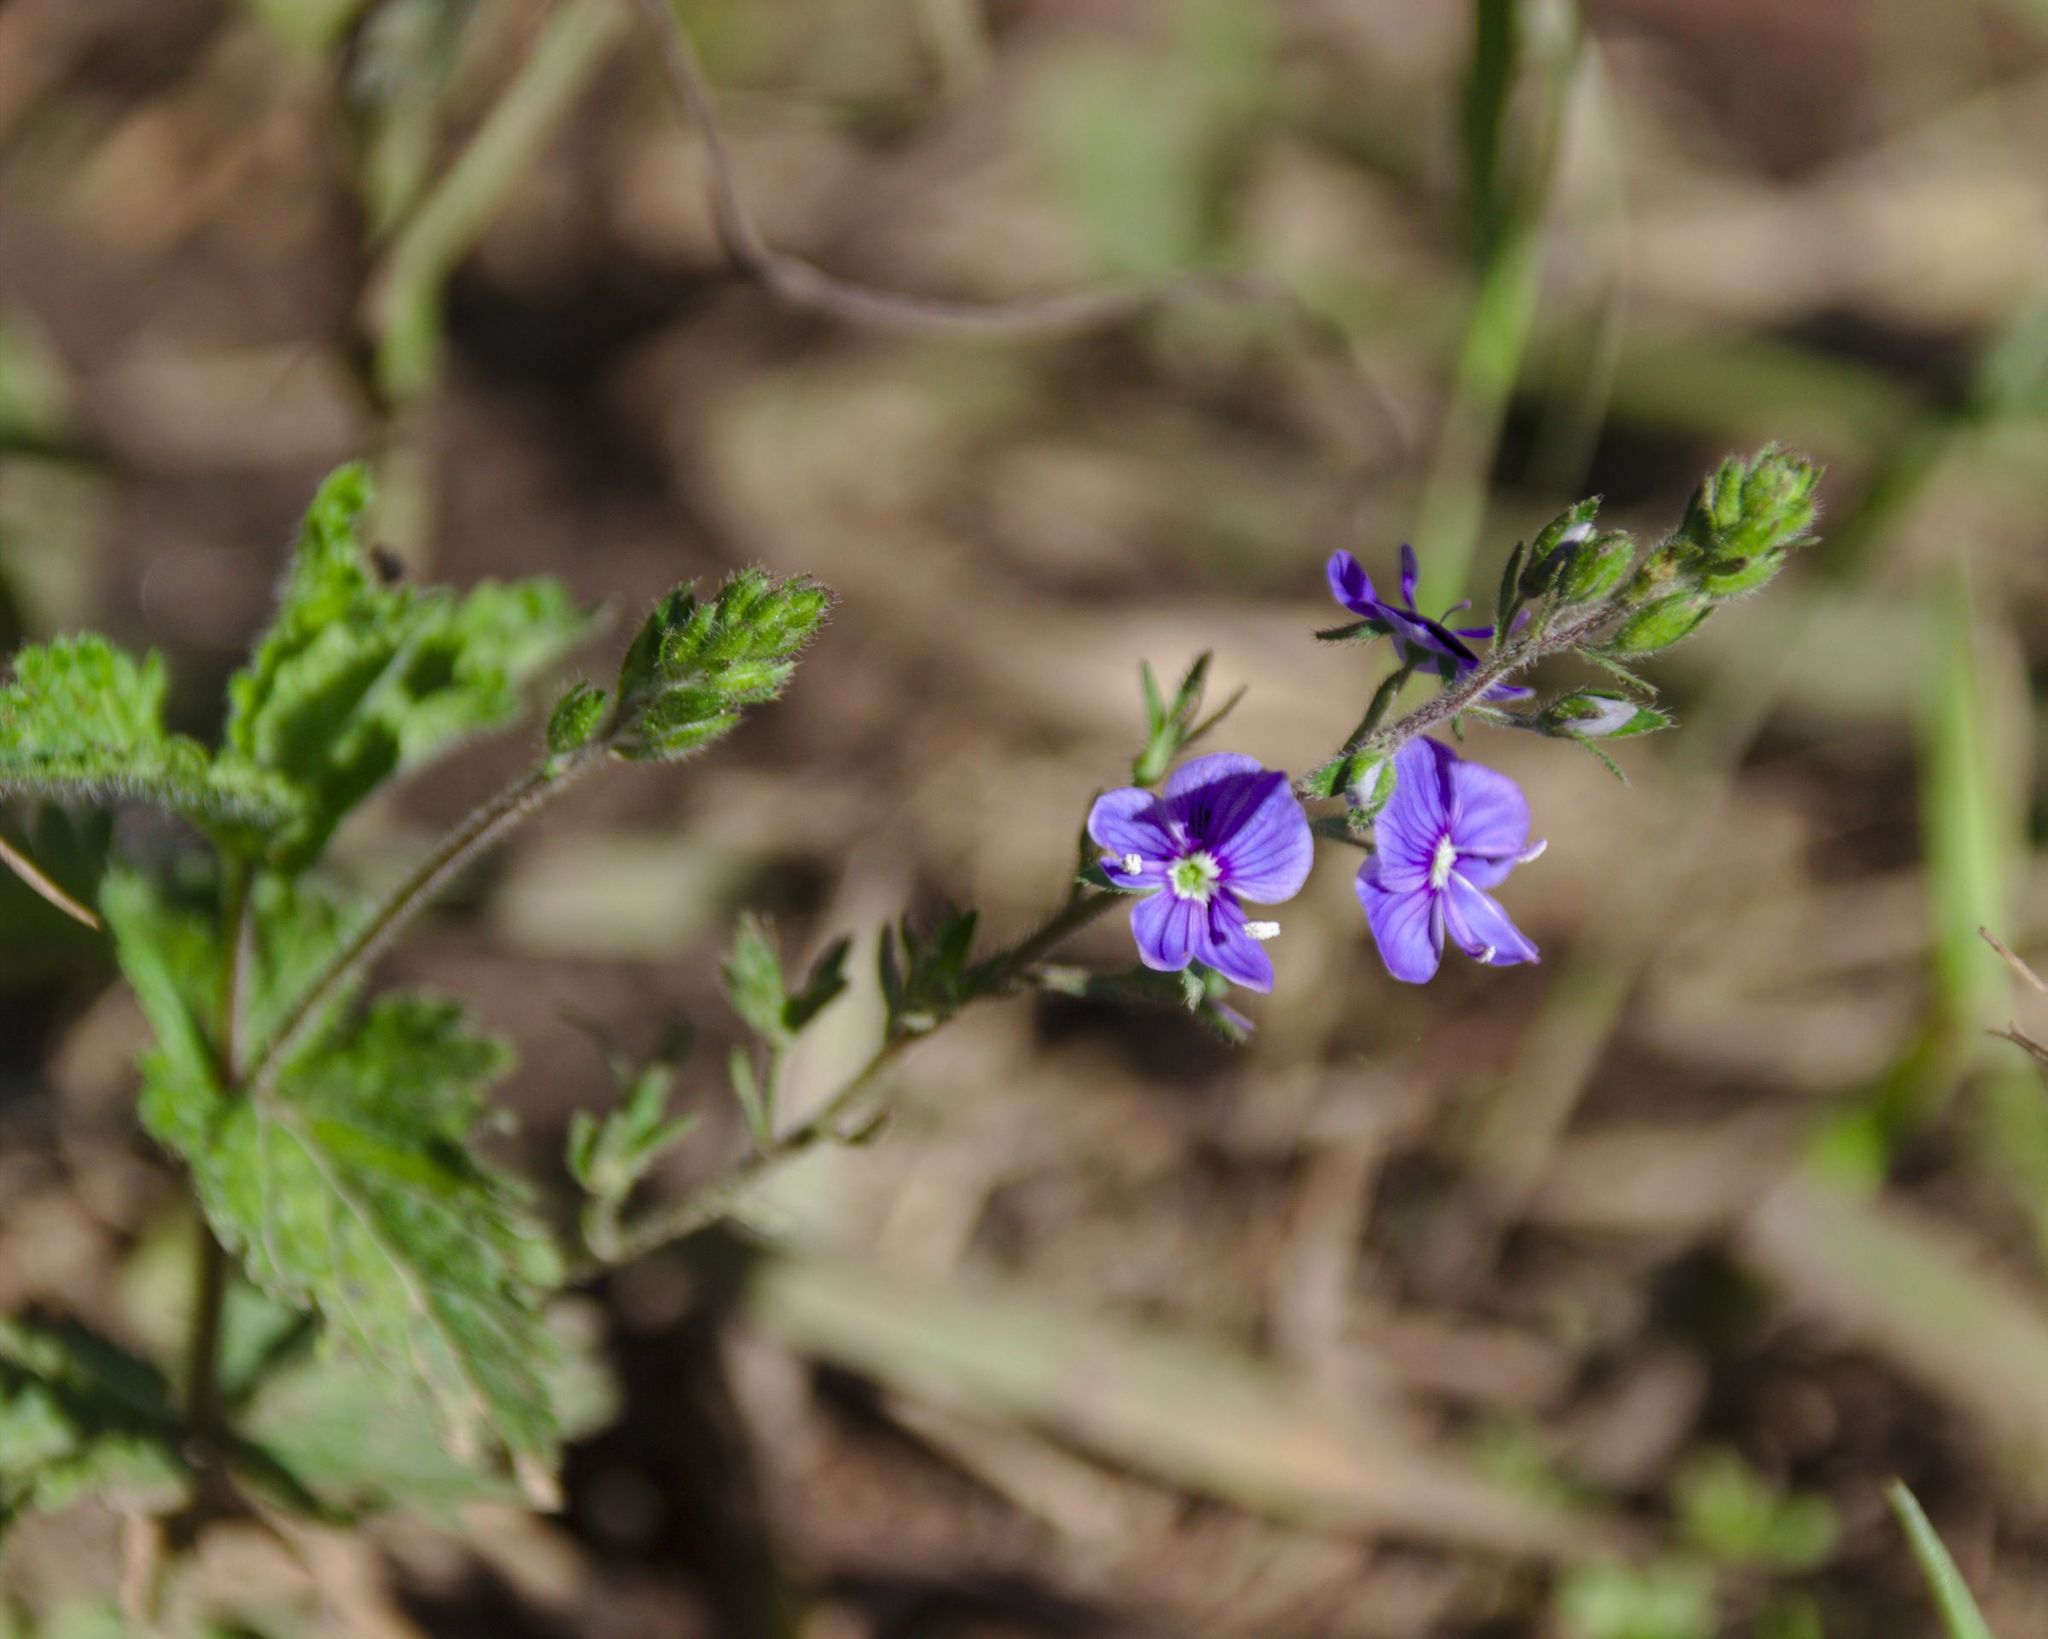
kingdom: Plantae
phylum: Tracheophyta
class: Magnoliopsida
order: Lamiales
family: Plantaginaceae
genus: Veronica
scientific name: Veronica chamaedrys
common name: Germander speedwell
